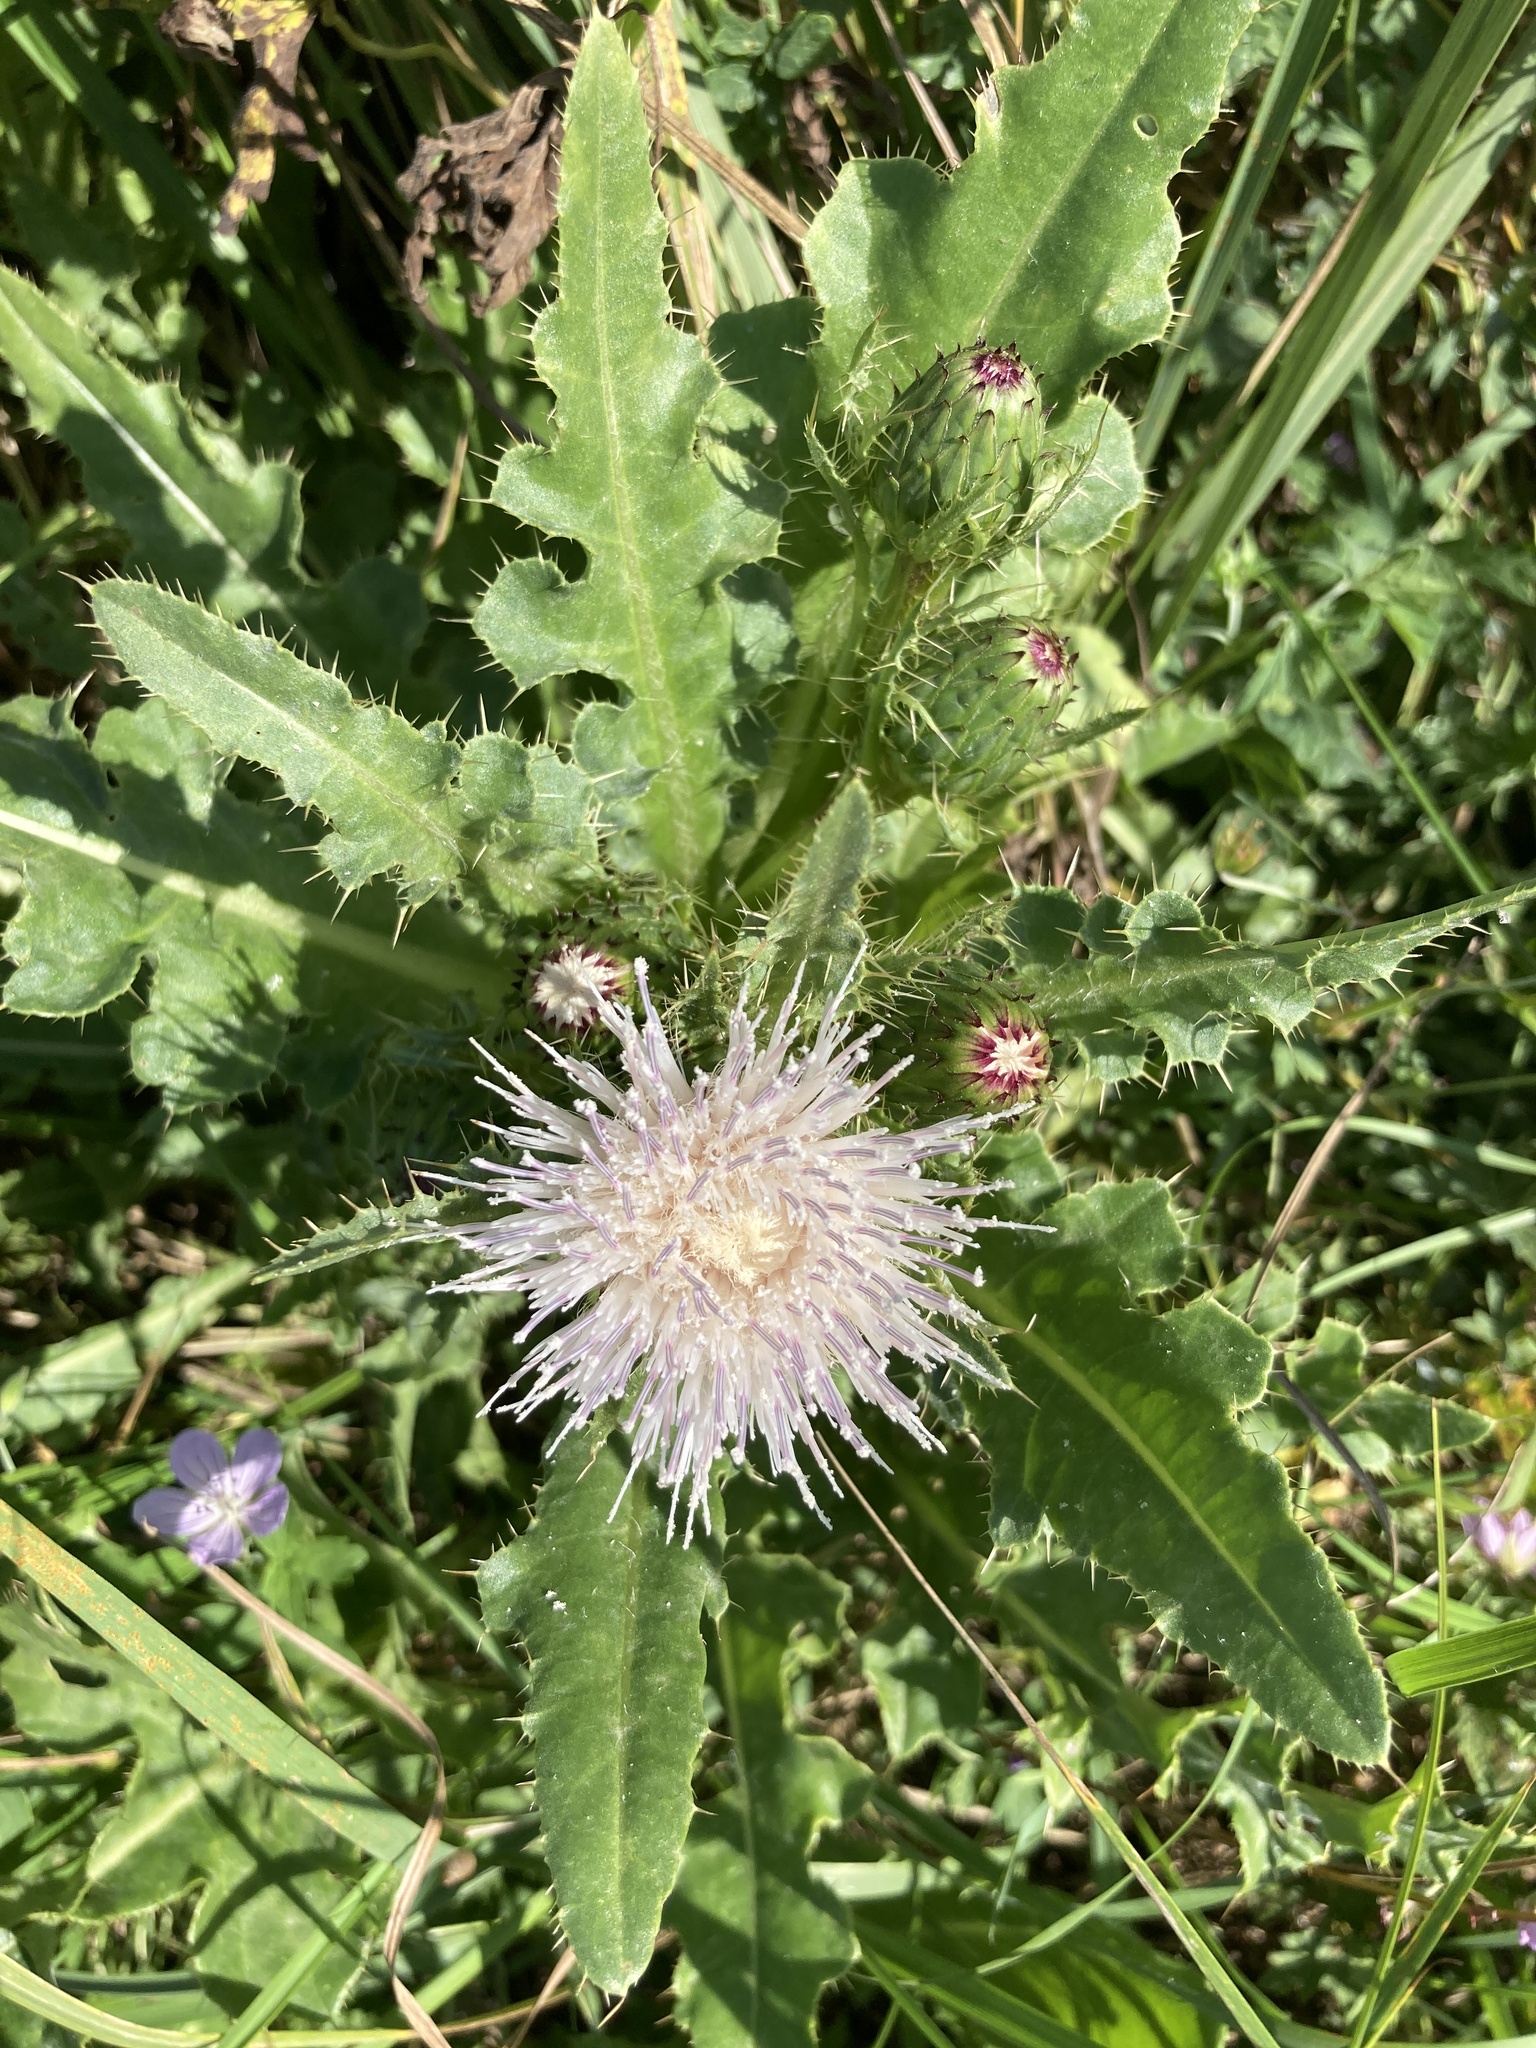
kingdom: Plantae
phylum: Tracheophyta
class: Magnoliopsida
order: Asterales
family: Asteraceae
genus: Cirsium
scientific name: Cirsium esculentum
